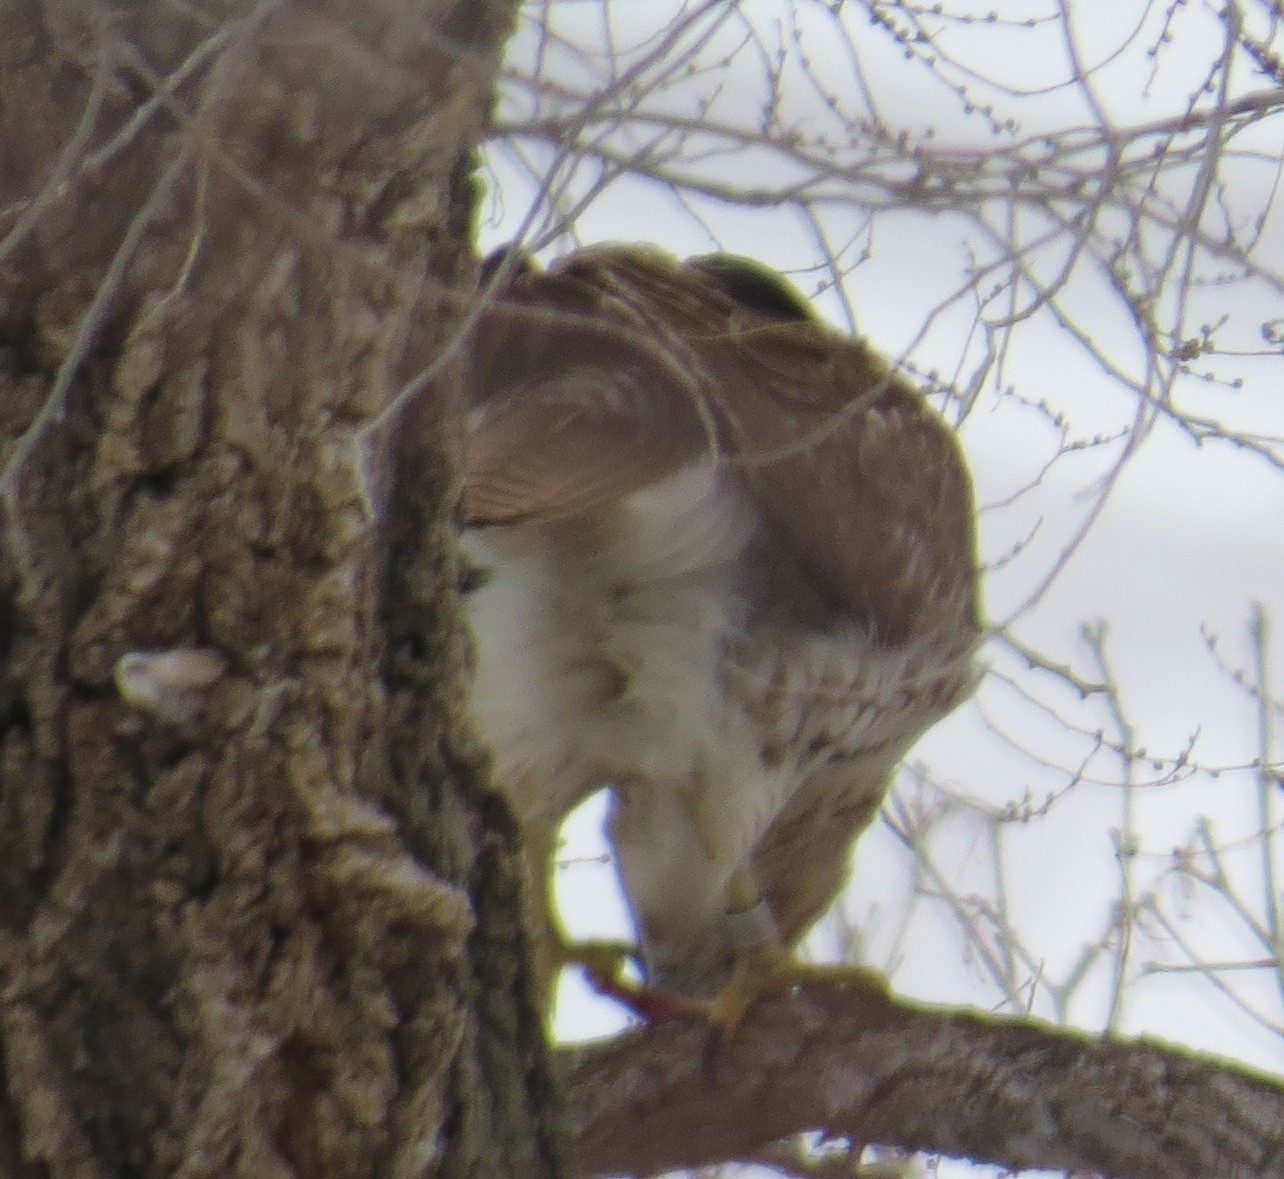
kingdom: Animalia
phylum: Chordata
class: Aves
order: Accipitriformes
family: Accipitridae
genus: Buteo
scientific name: Buteo jamaicensis
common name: Red-tailed hawk
